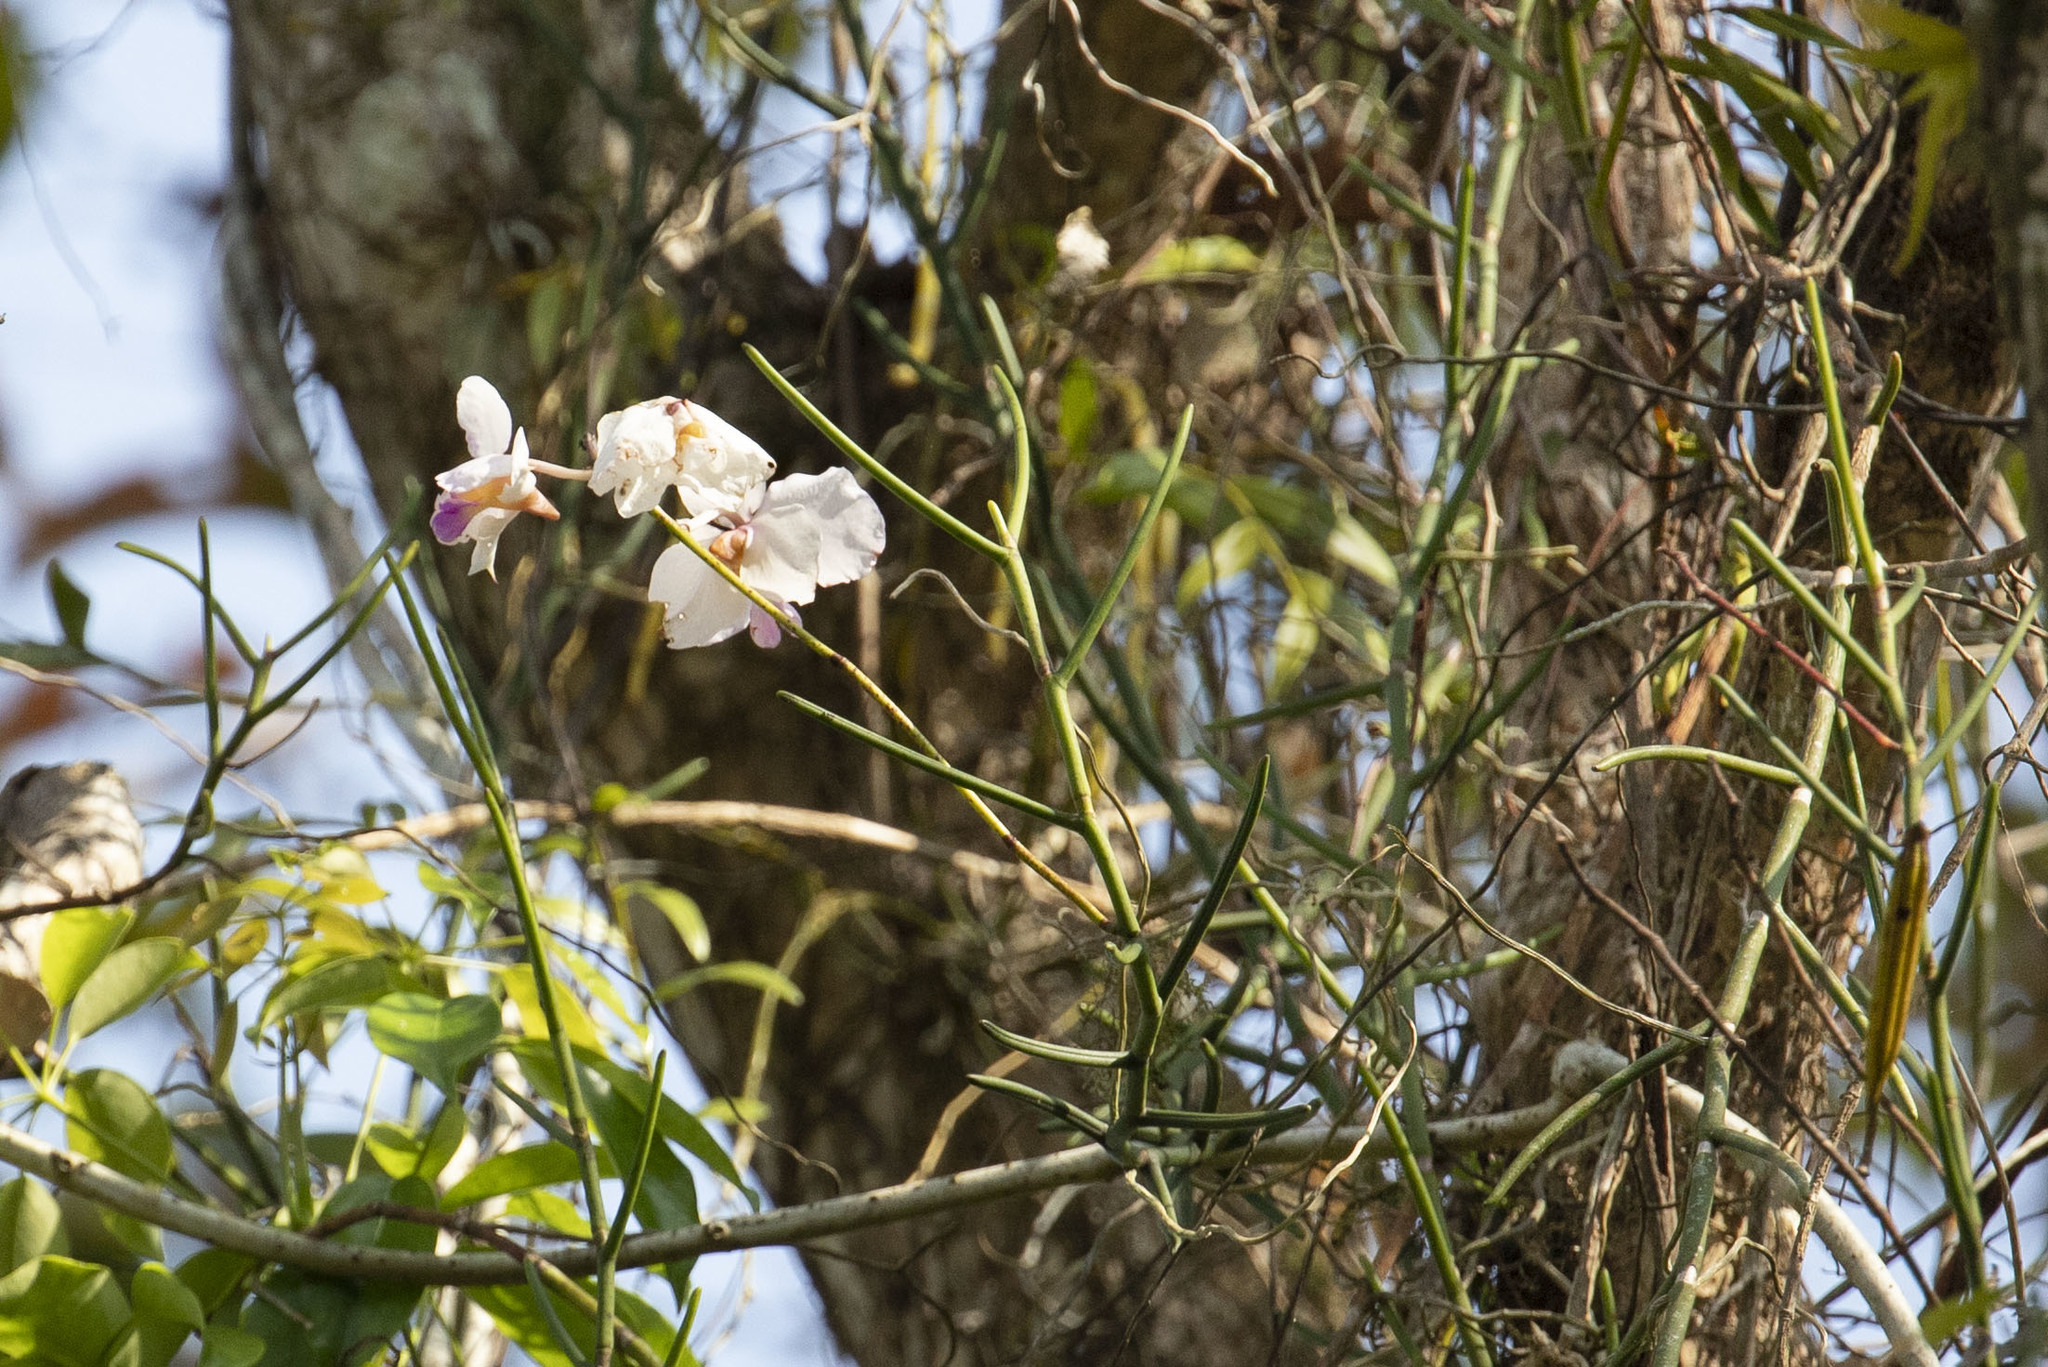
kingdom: Plantae
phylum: Tracheophyta
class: Liliopsida
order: Asparagales
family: Orchidaceae
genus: Papilionanthe
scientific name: Papilionanthe teres
